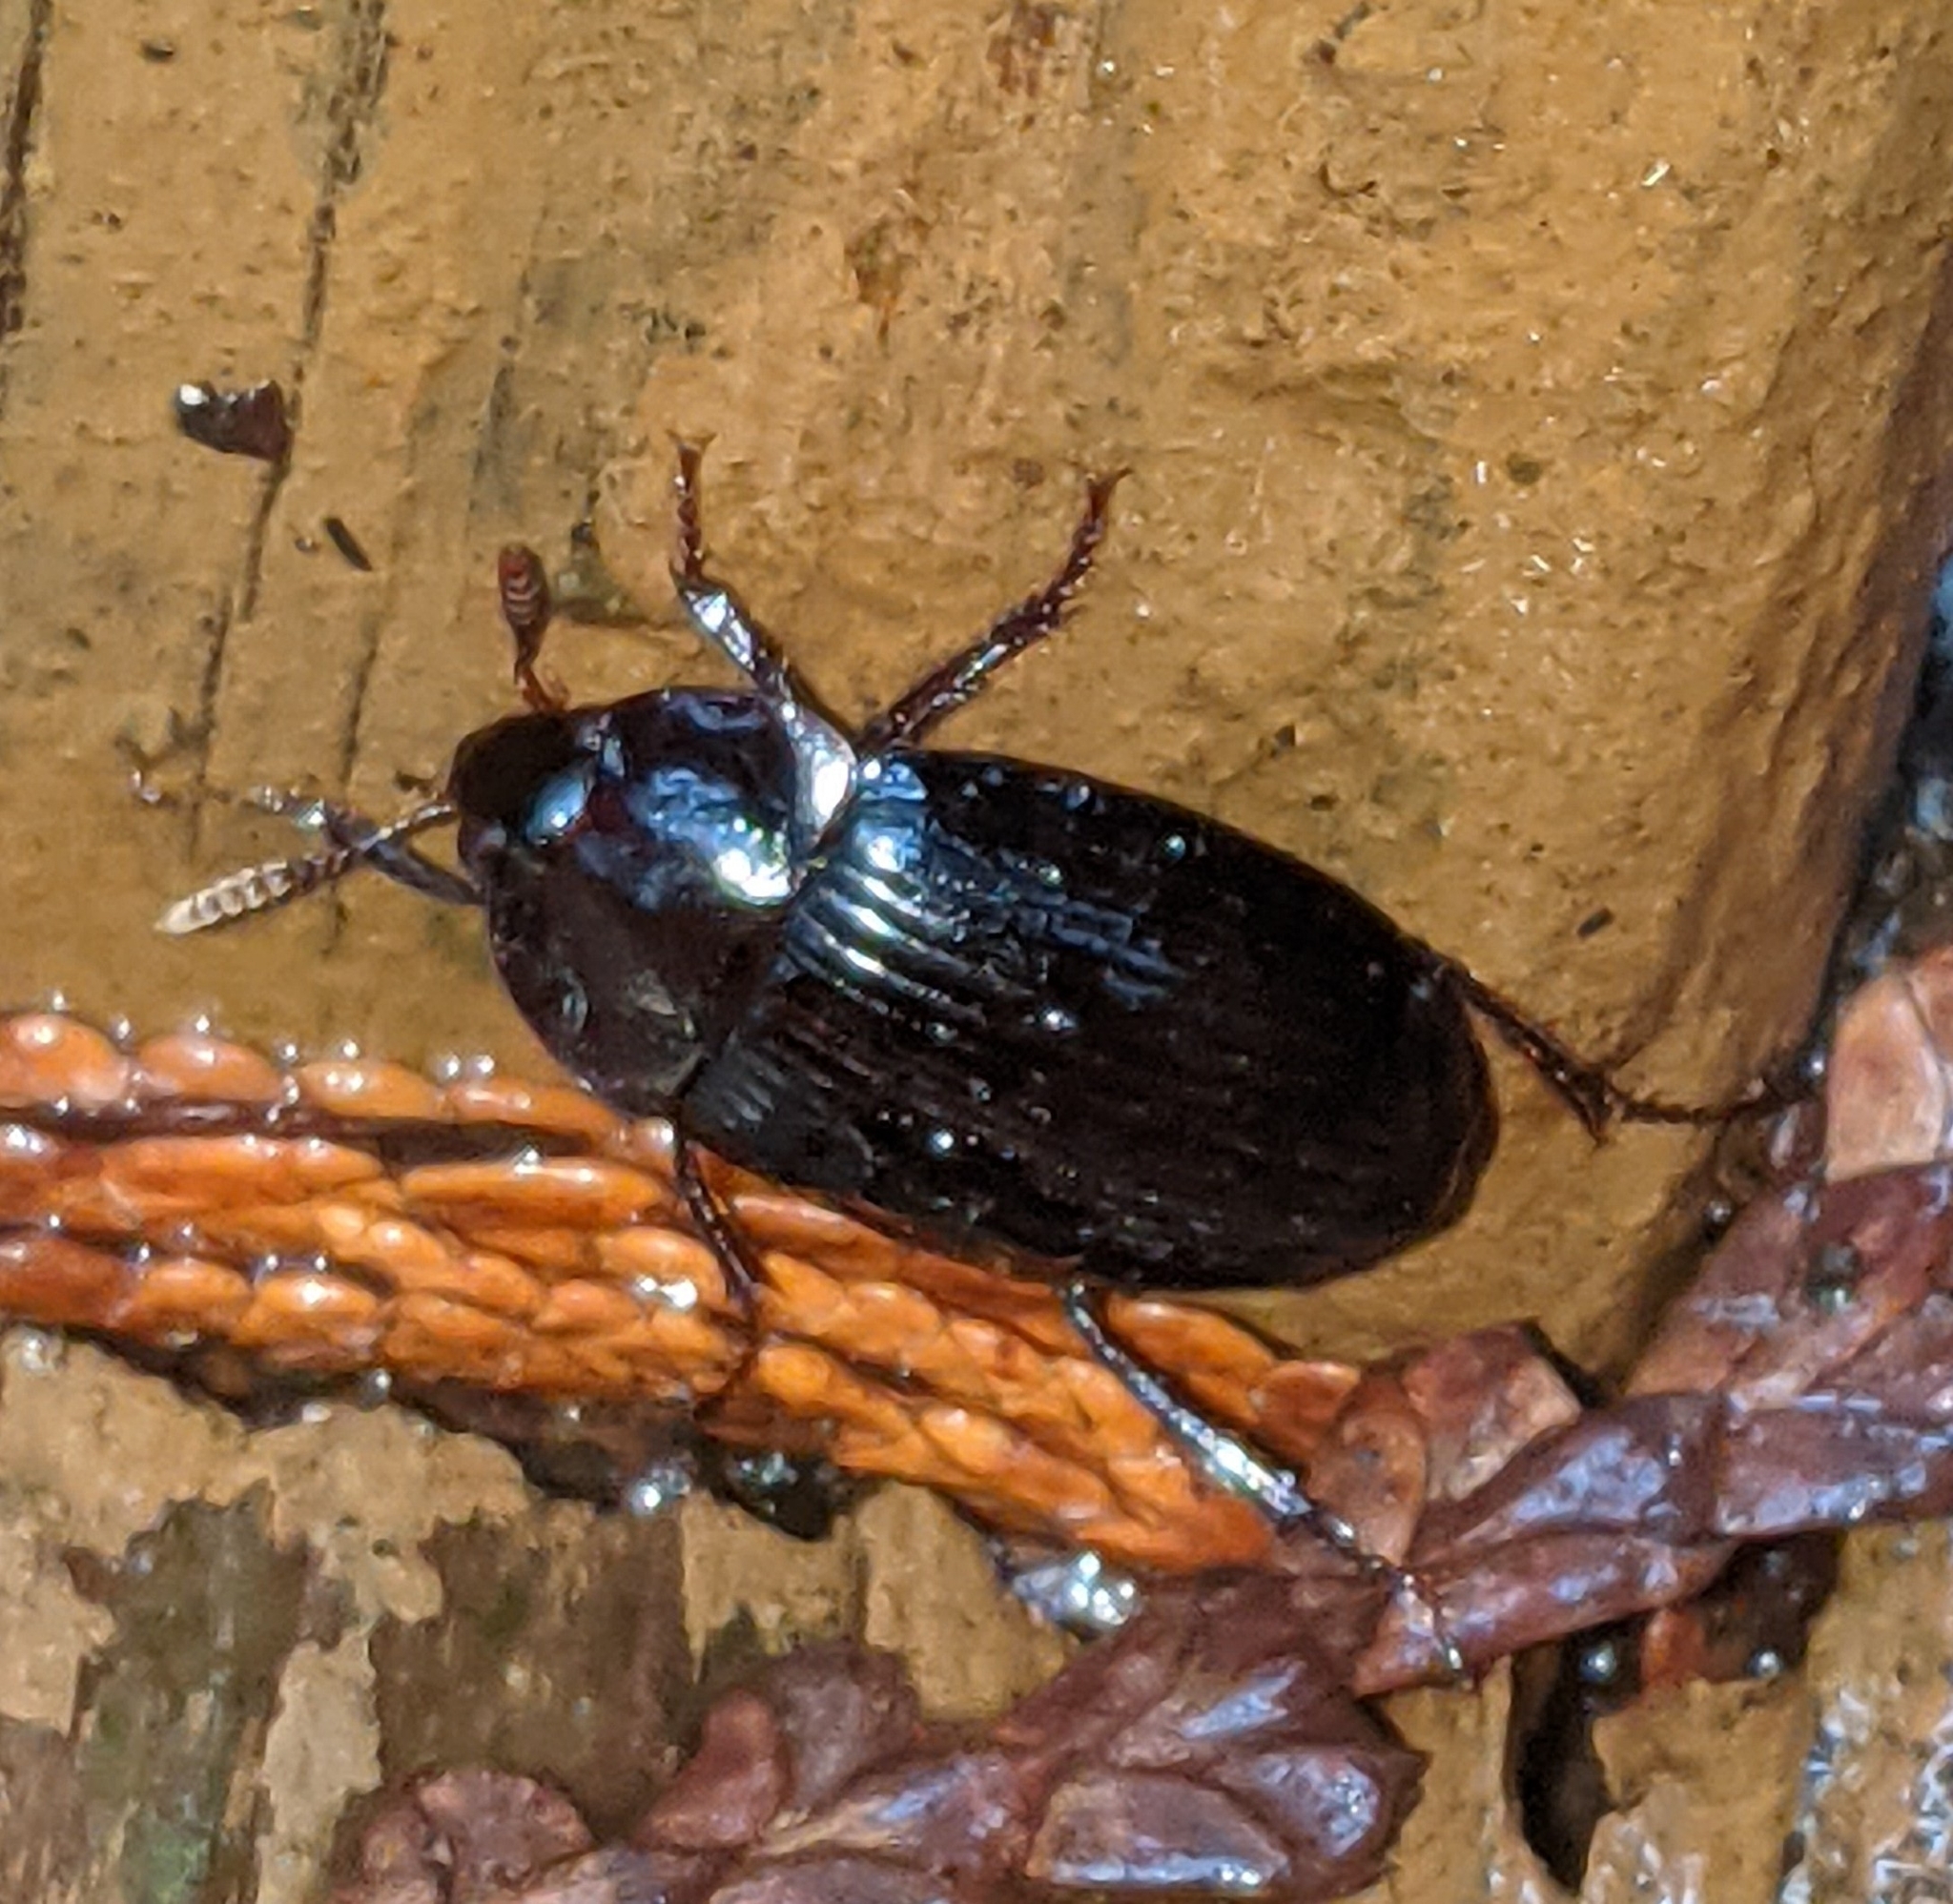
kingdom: Animalia
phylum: Arthropoda
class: Insecta
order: Coleoptera
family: Agyrtidae
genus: Necrophilus
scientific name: Necrophilus hydrophiloides
